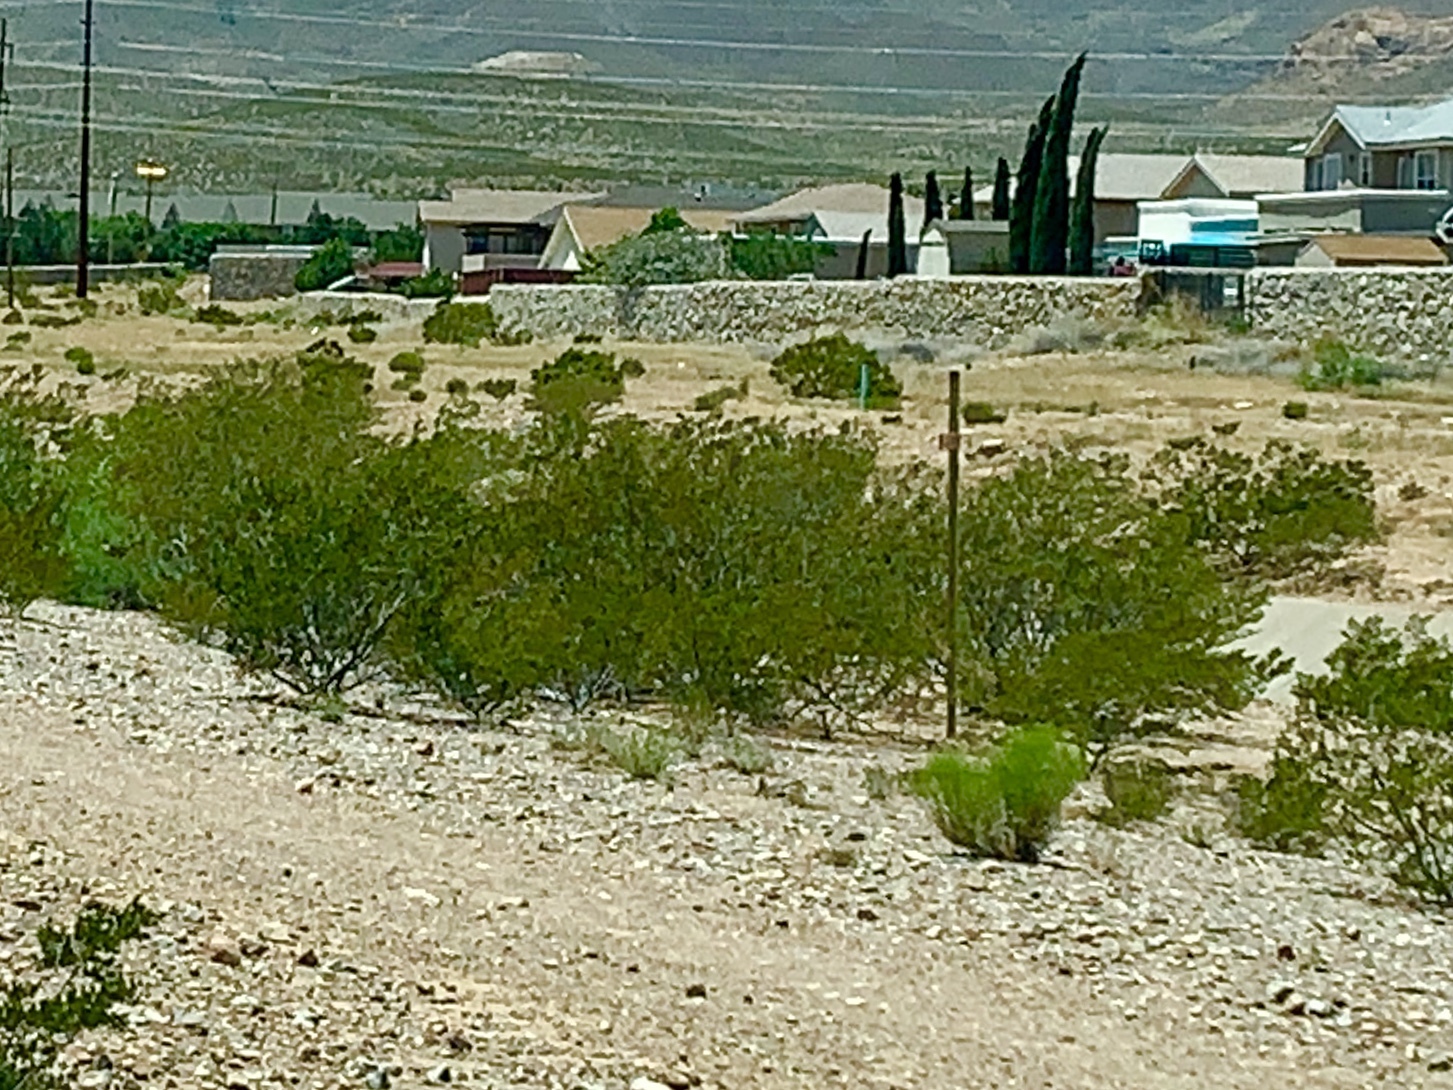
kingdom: Plantae
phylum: Tracheophyta
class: Magnoliopsida
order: Zygophyllales
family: Zygophyllaceae
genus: Larrea
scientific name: Larrea tridentata
